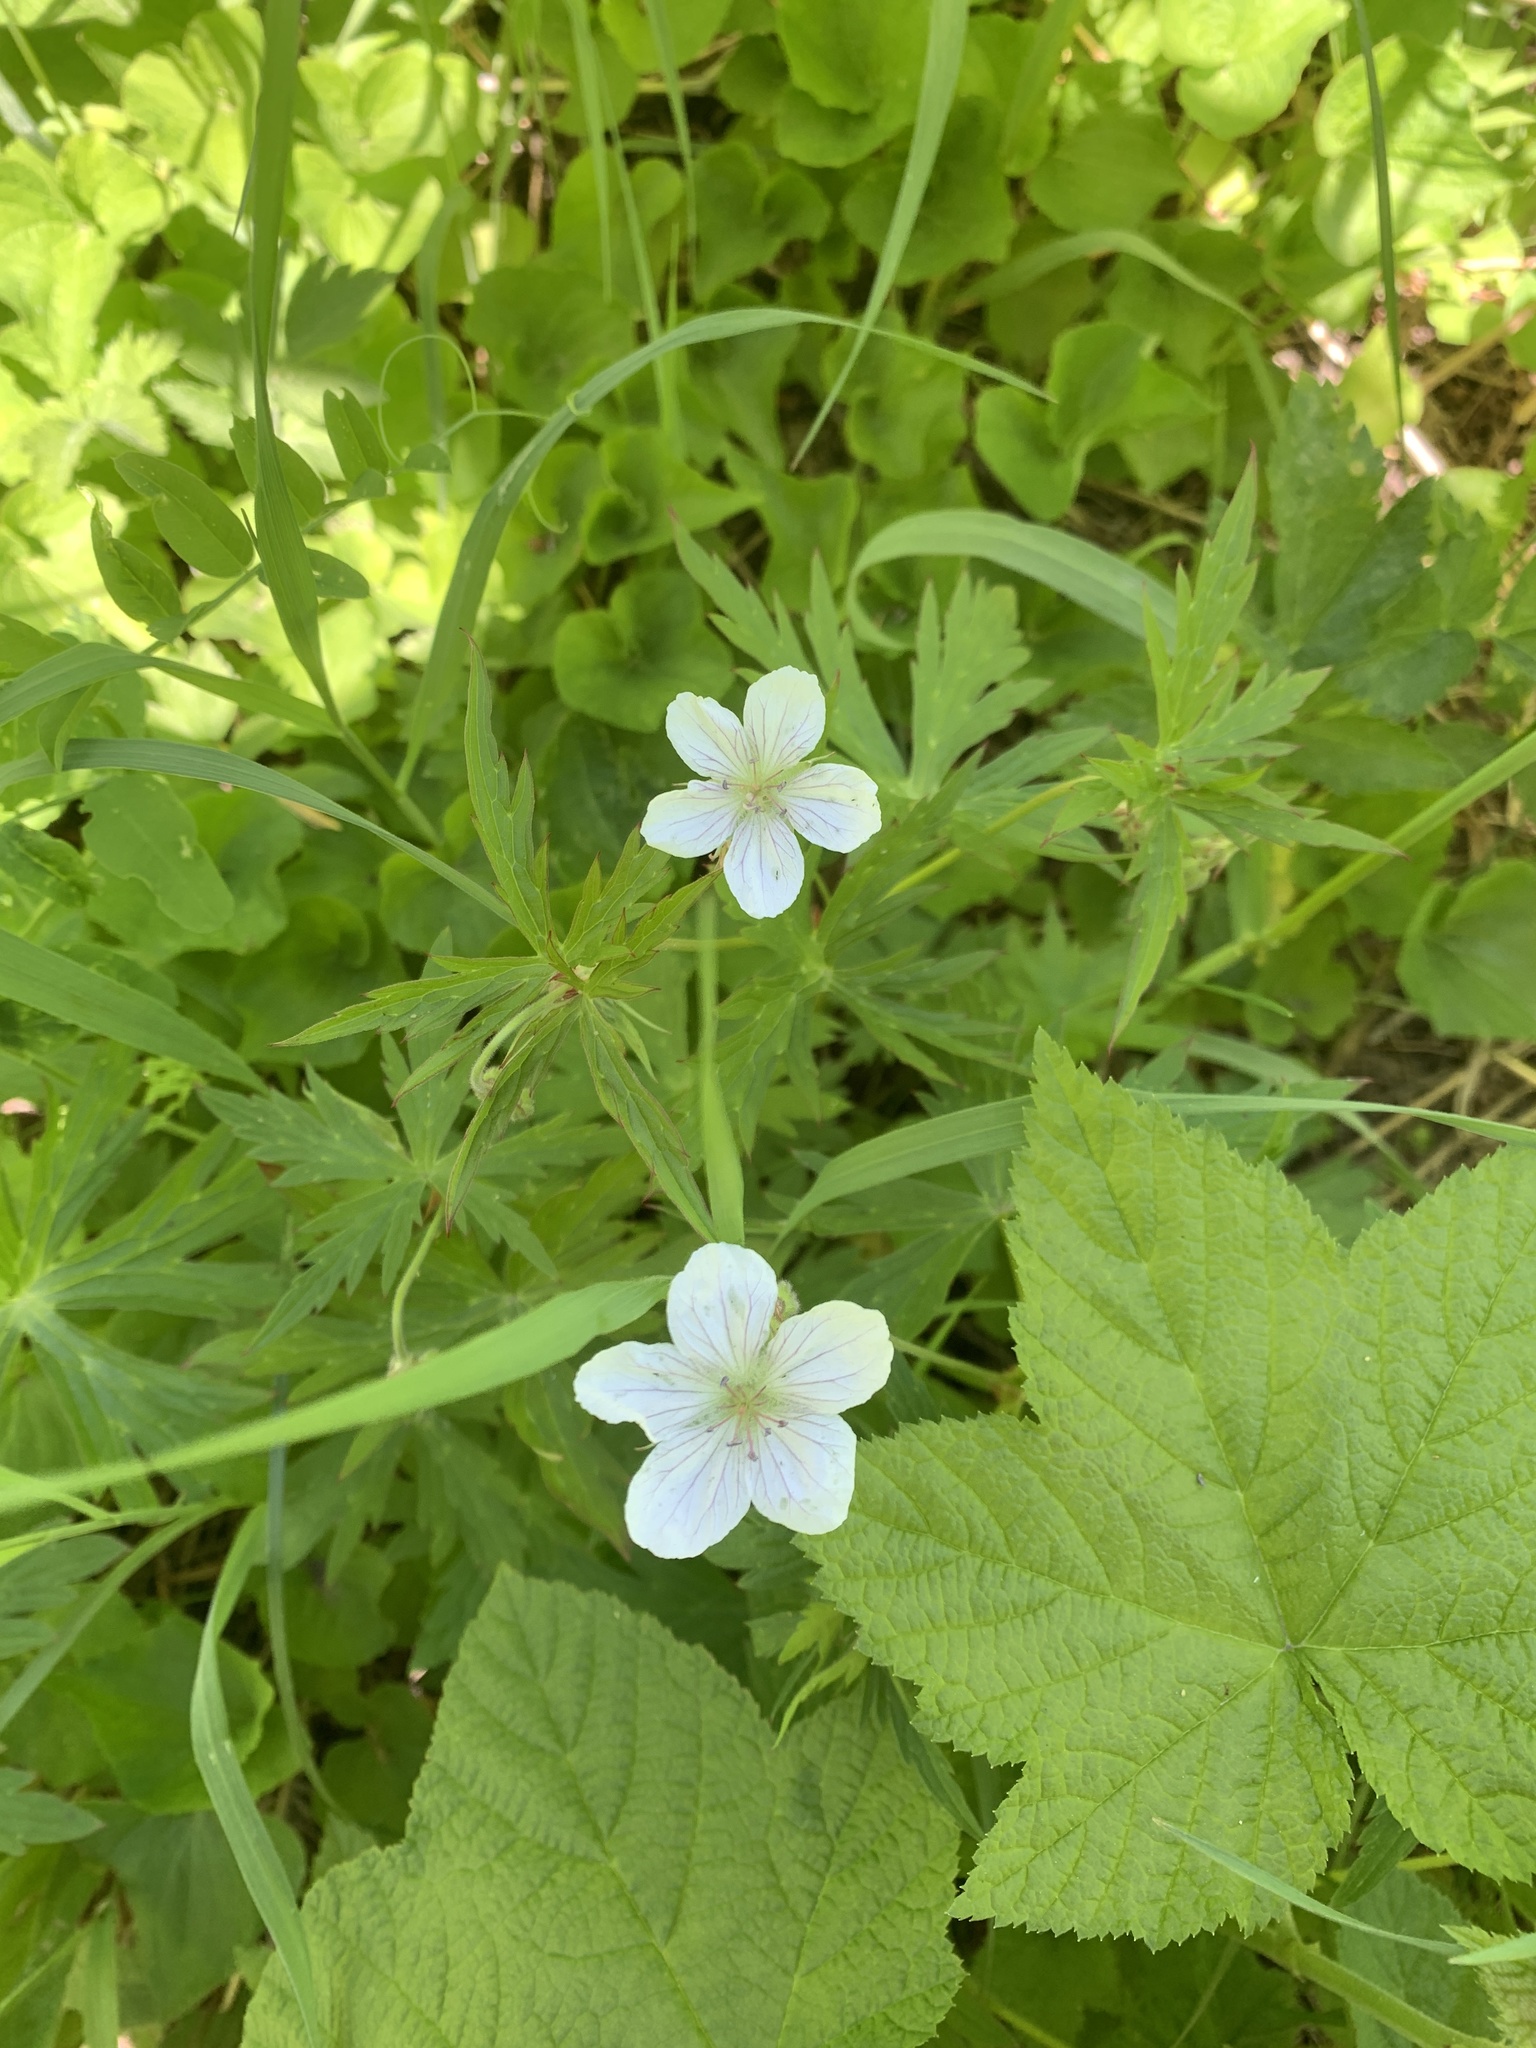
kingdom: Plantae
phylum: Tracheophyta
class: Magnoliopsida
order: Geraniales
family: Geraniaceae
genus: Geranium
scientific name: Geranium richardsonii
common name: Richardson's crane's-bill
